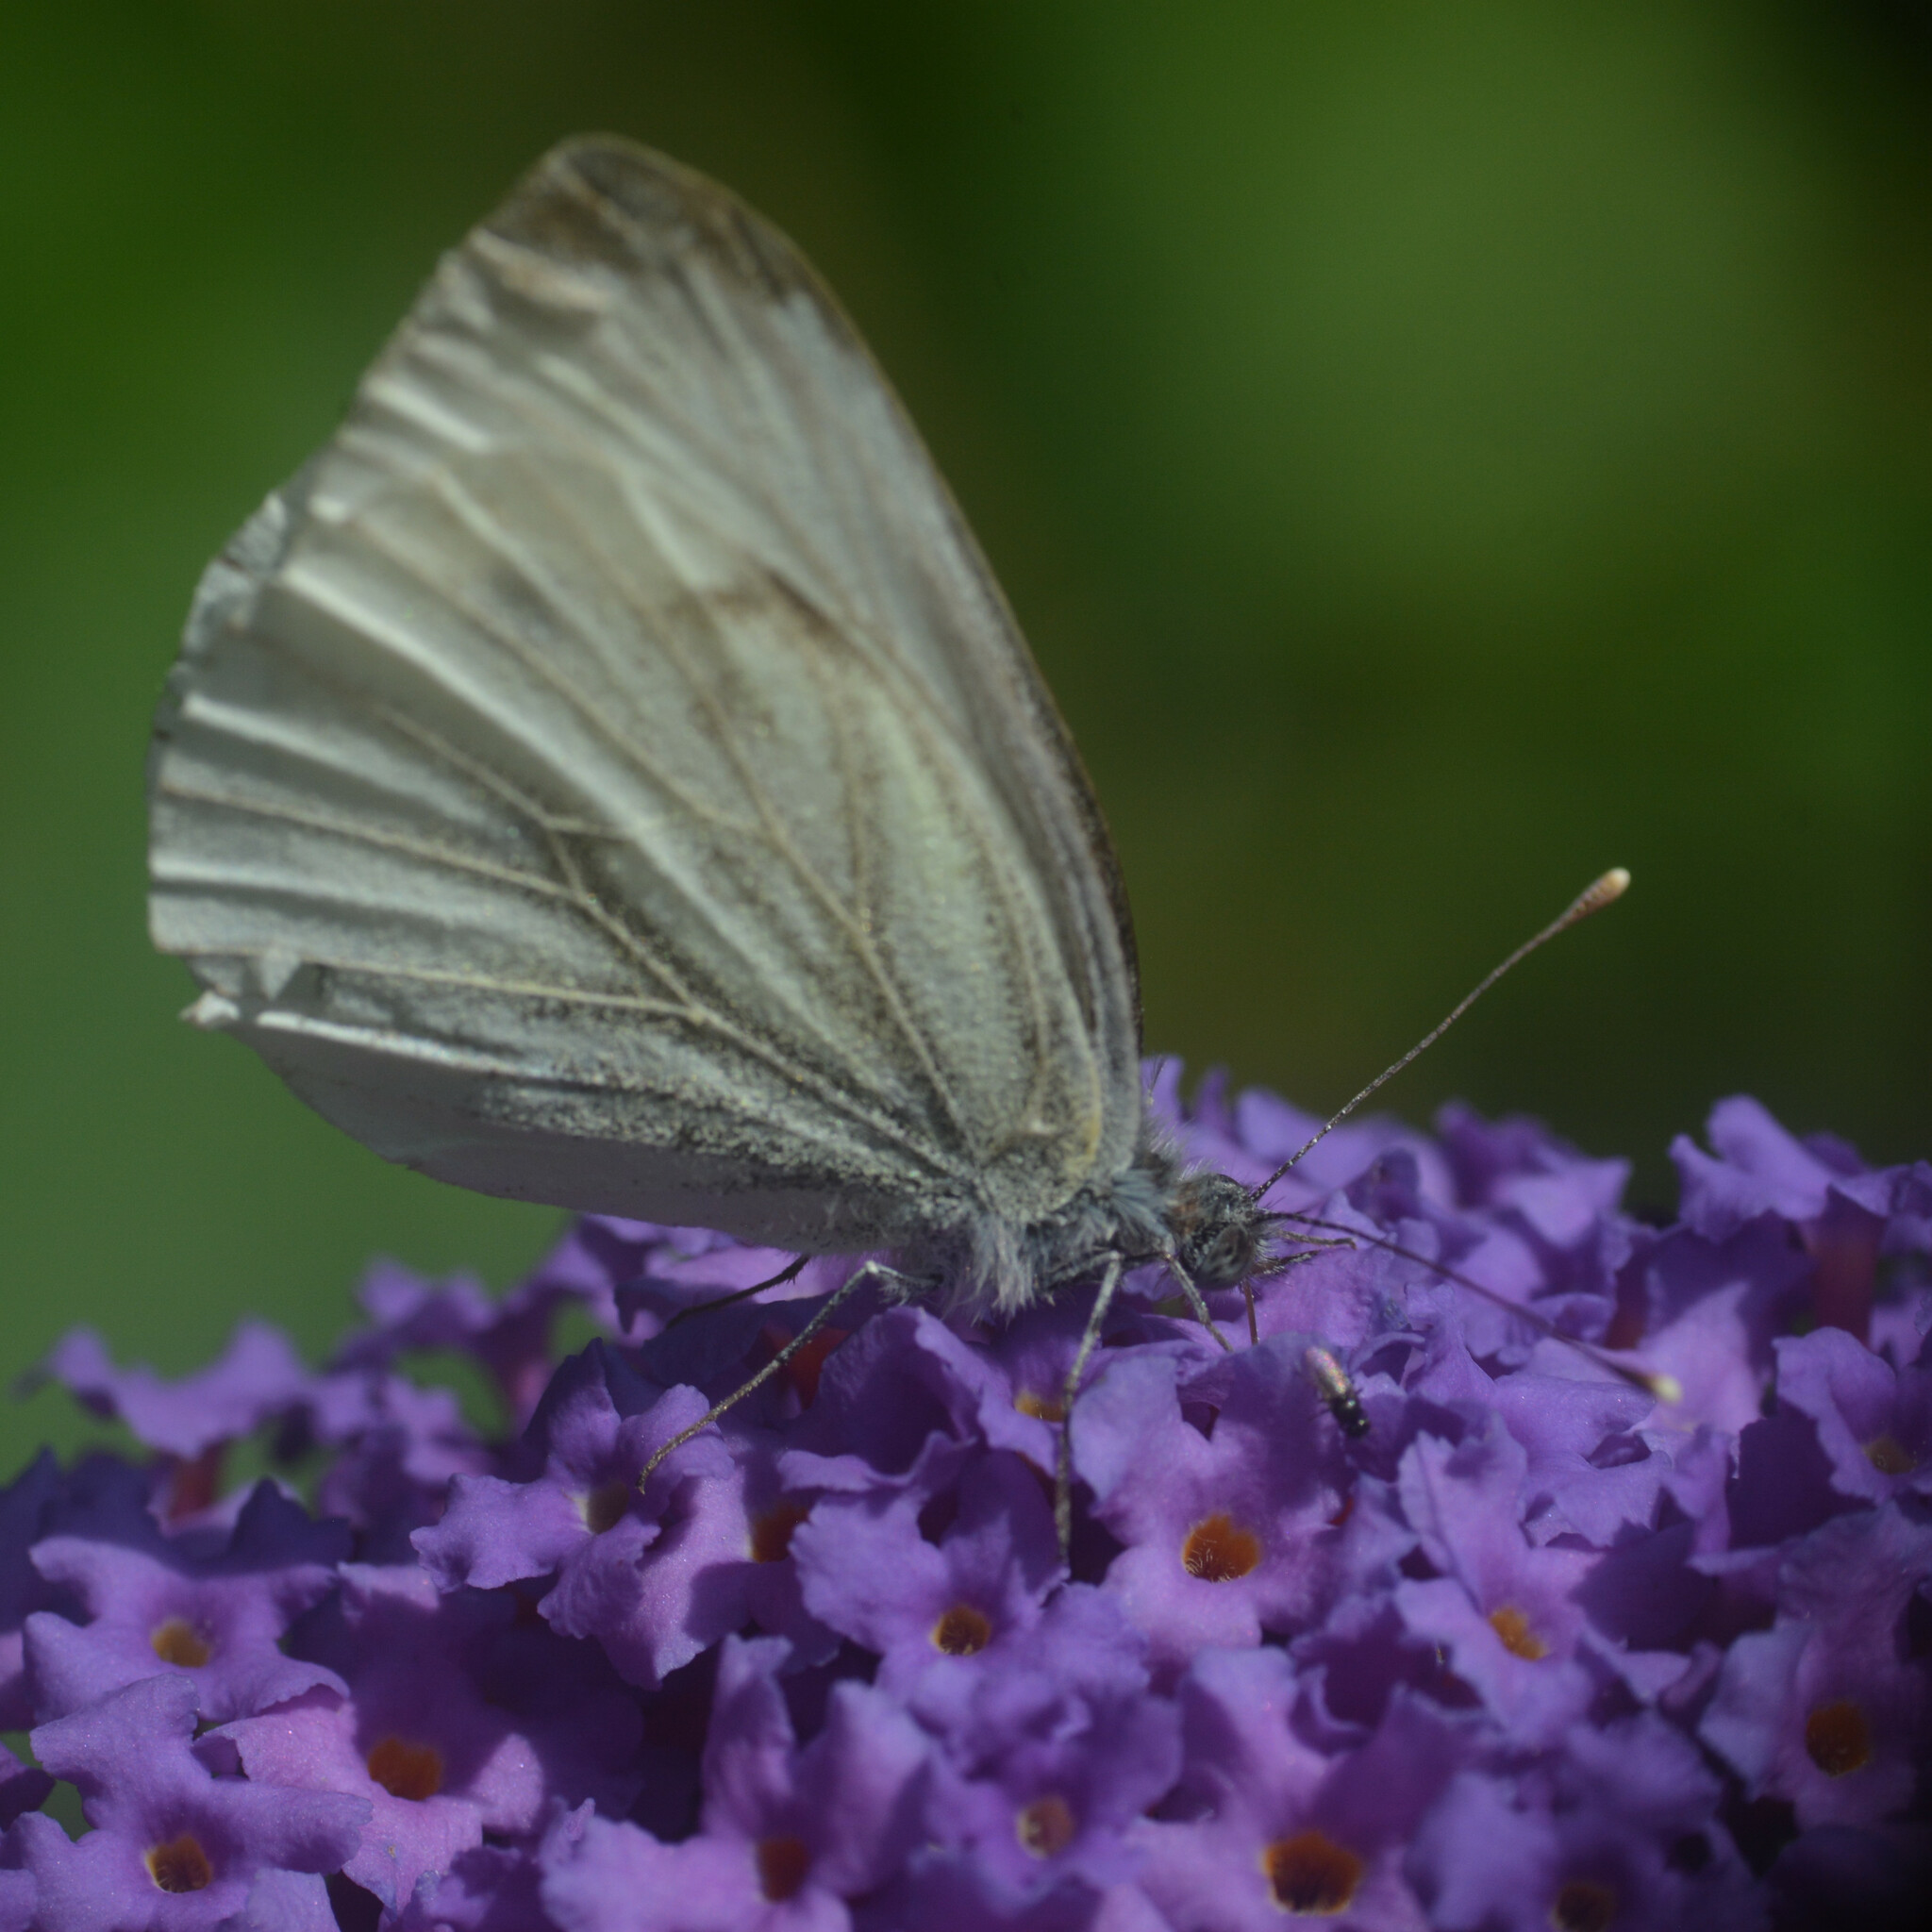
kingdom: Animalia
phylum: Arthropoda
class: Insecta
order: Lepidoptera
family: Pieridae
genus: Pieris
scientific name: Pieris napi
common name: Green-veined white
